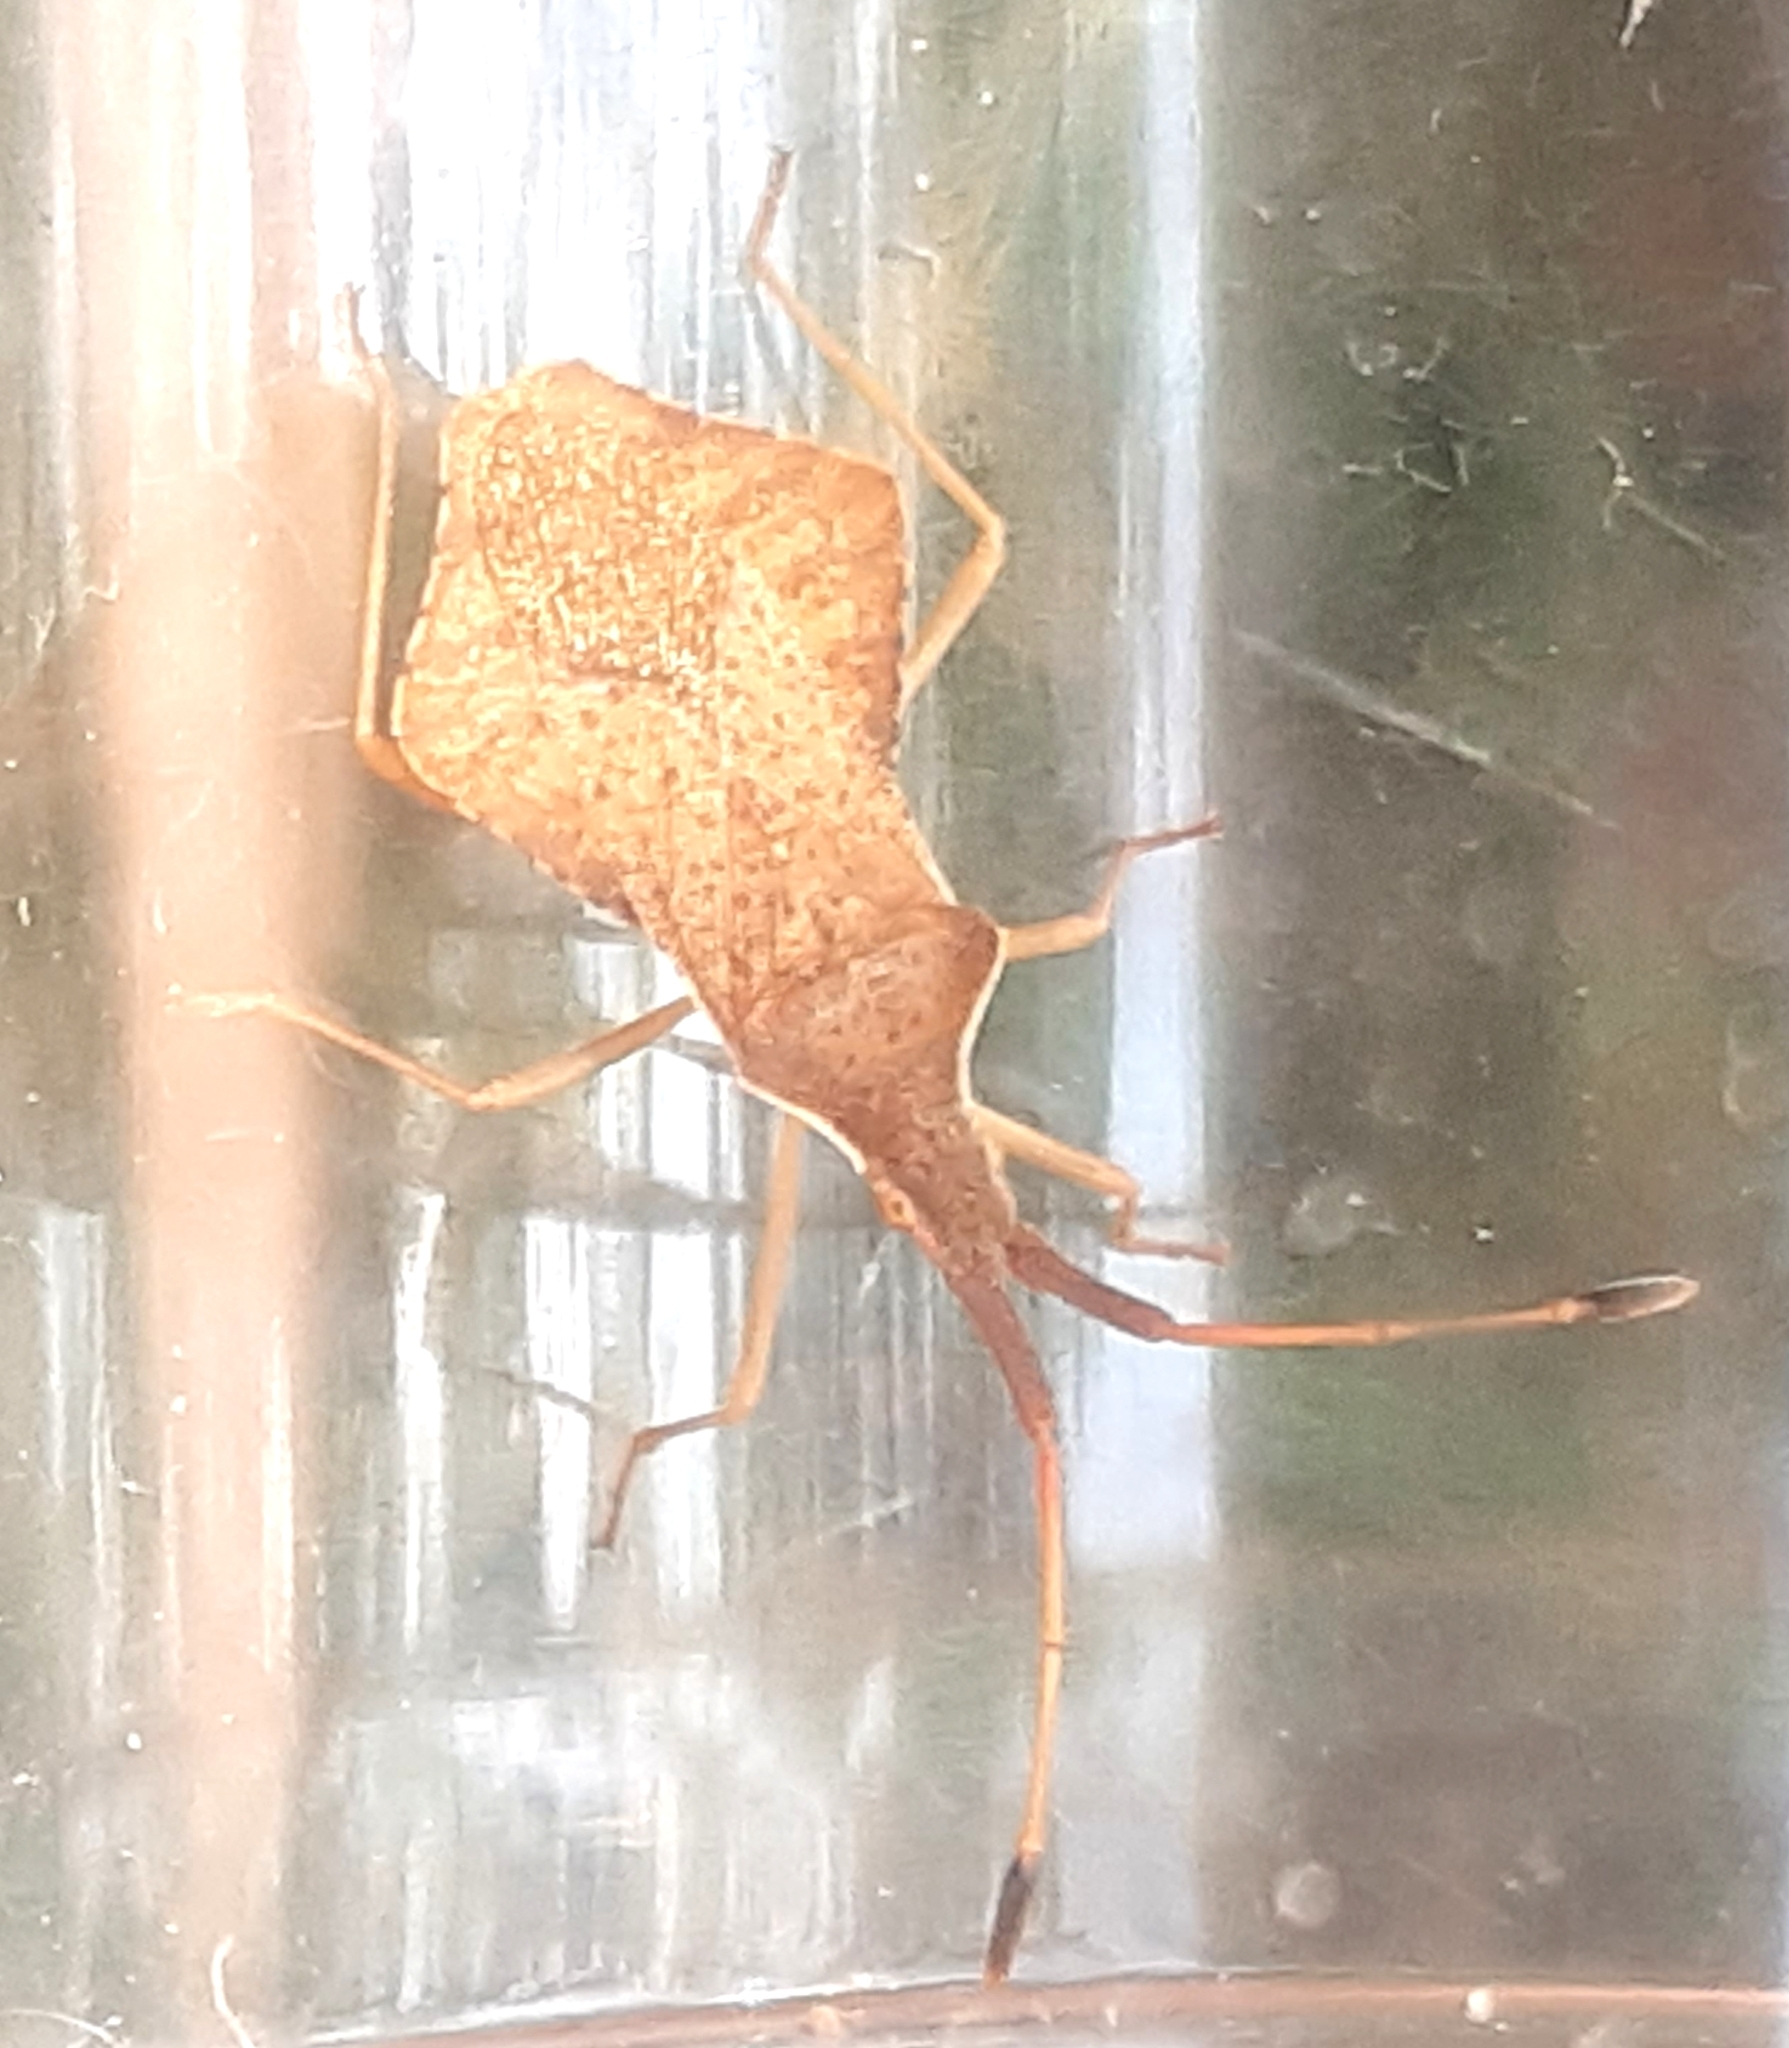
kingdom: Animalia
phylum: Arthropoda
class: Insecta
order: Hemiptera
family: Coreidae
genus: Syromastus
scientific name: Syromastus rhombeus
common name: Rhombic leatherbug
